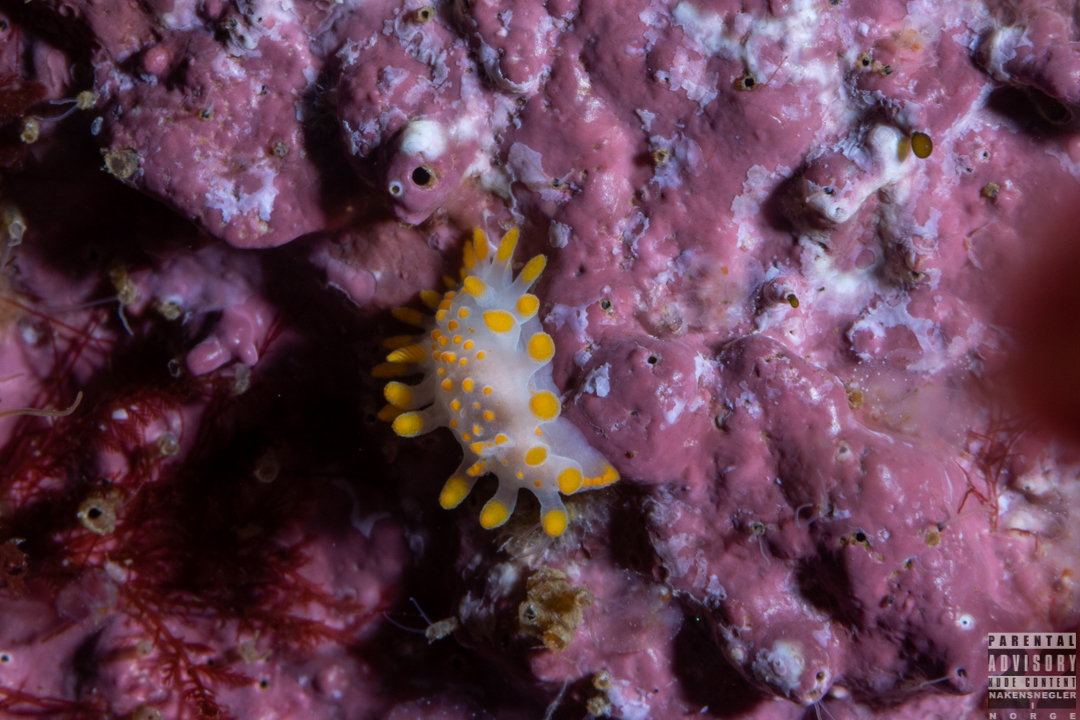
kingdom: Animalia
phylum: Mollusca
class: Gastropoda
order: Nudibranchia
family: Polyceridae
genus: Limacia
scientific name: Limacia clavigera
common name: Orange-clubbed sea slug
